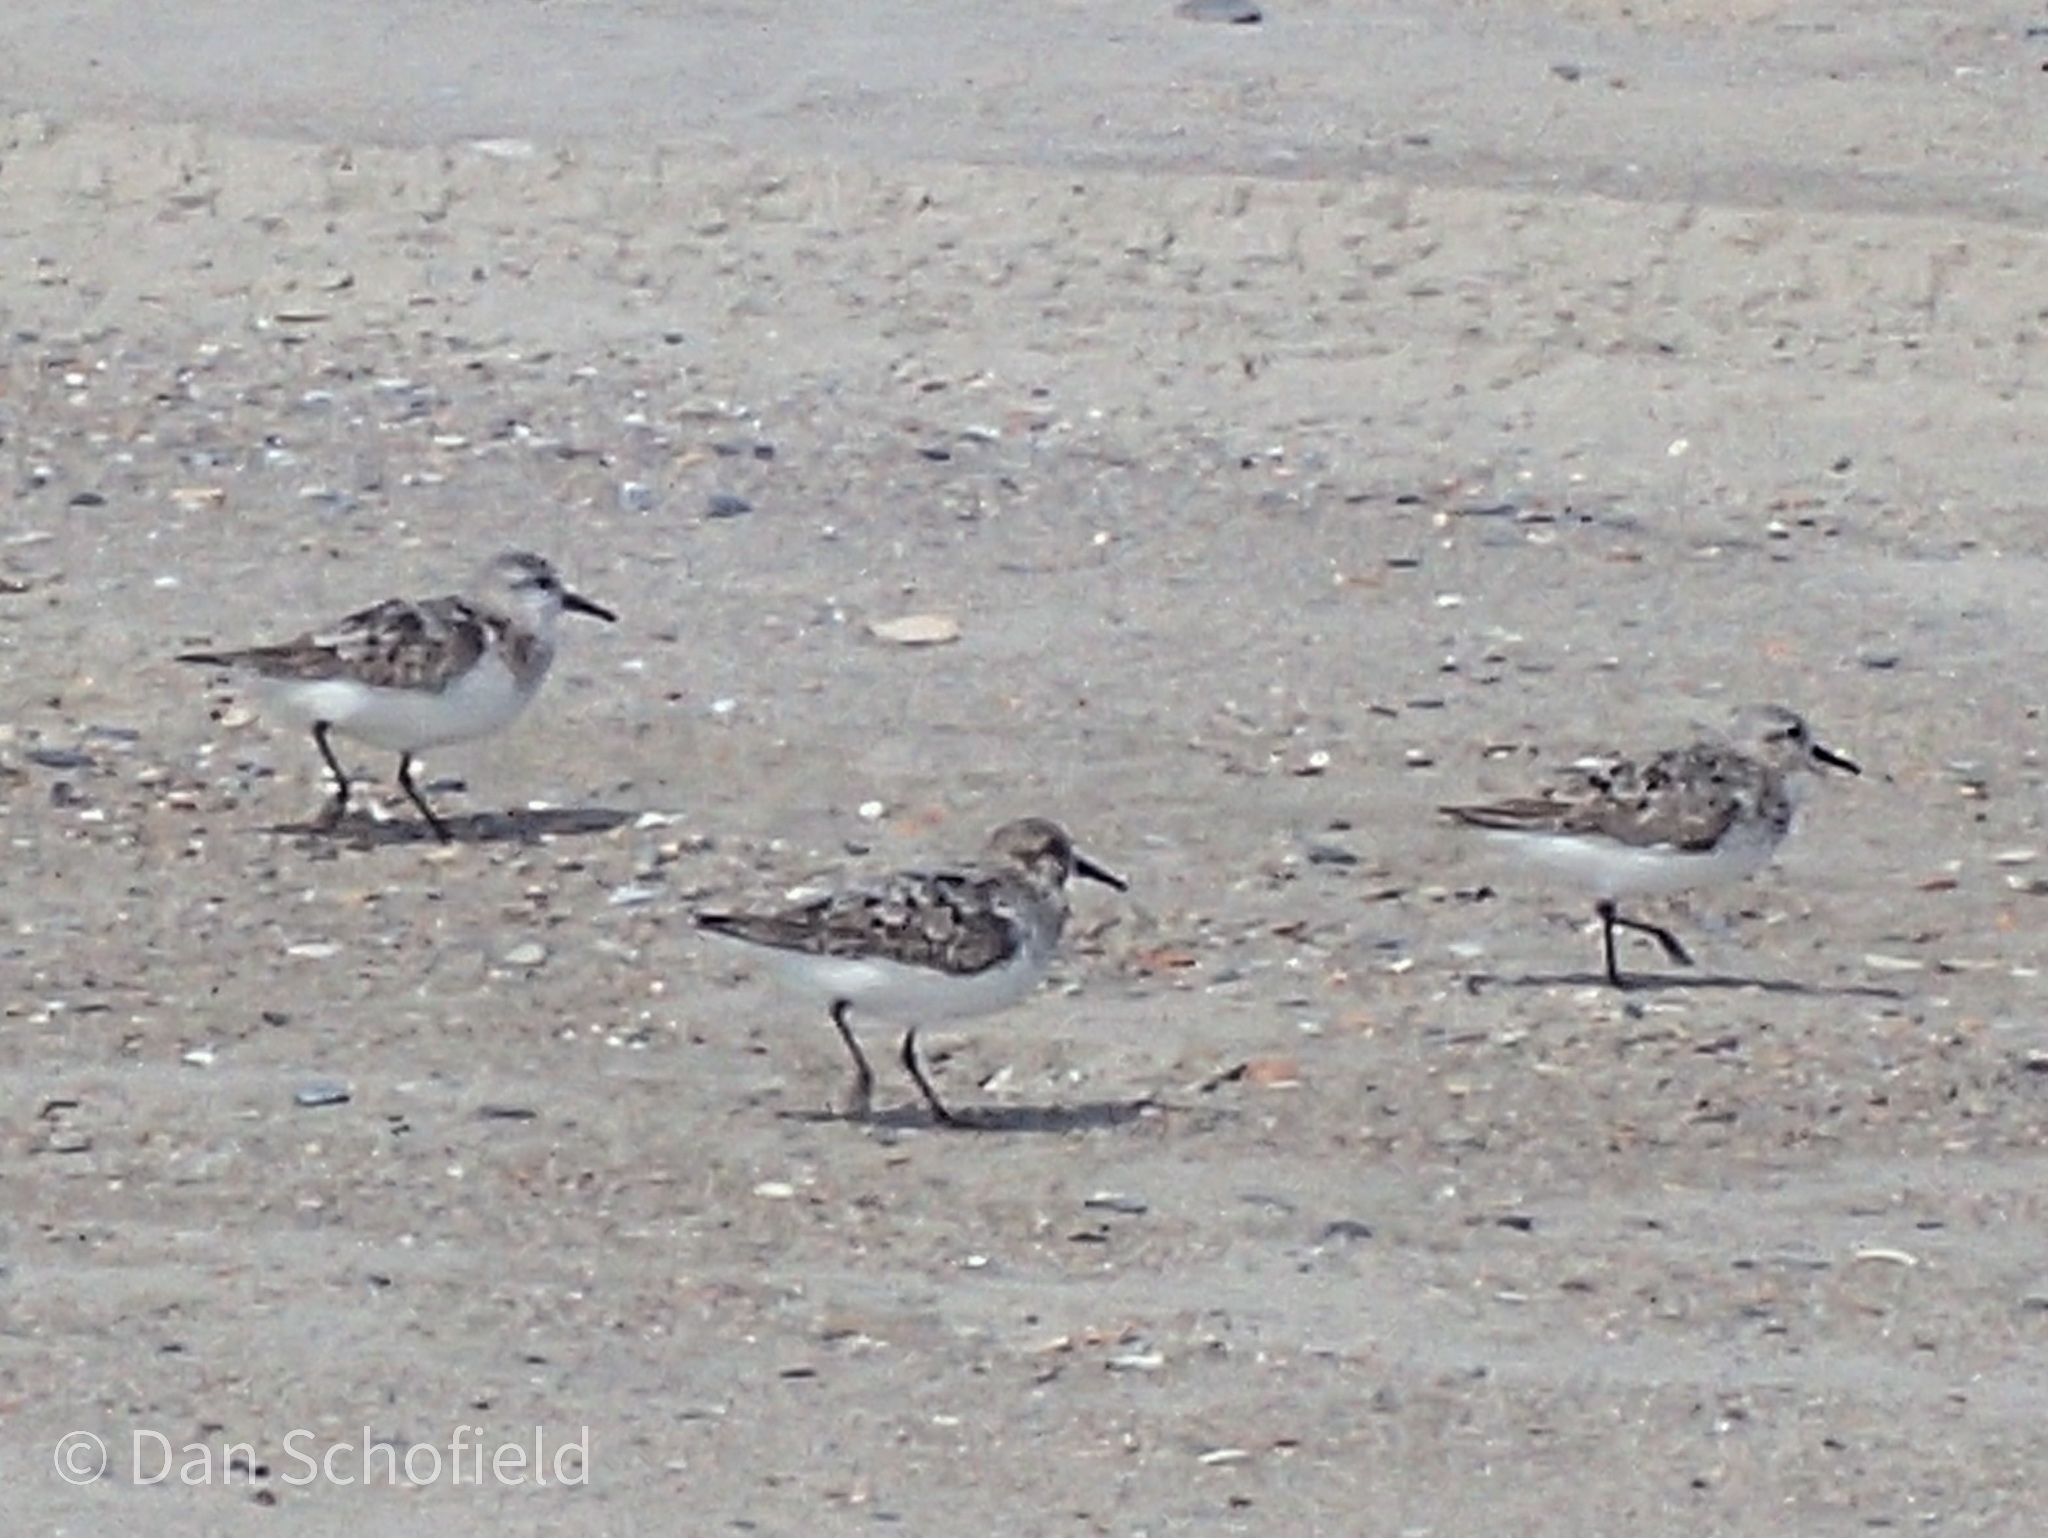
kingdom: Animalia
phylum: Chordata
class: Aves
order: Charadriiformes
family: Scolopacidae
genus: Calidris
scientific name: Calidris alba
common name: Sanderling
